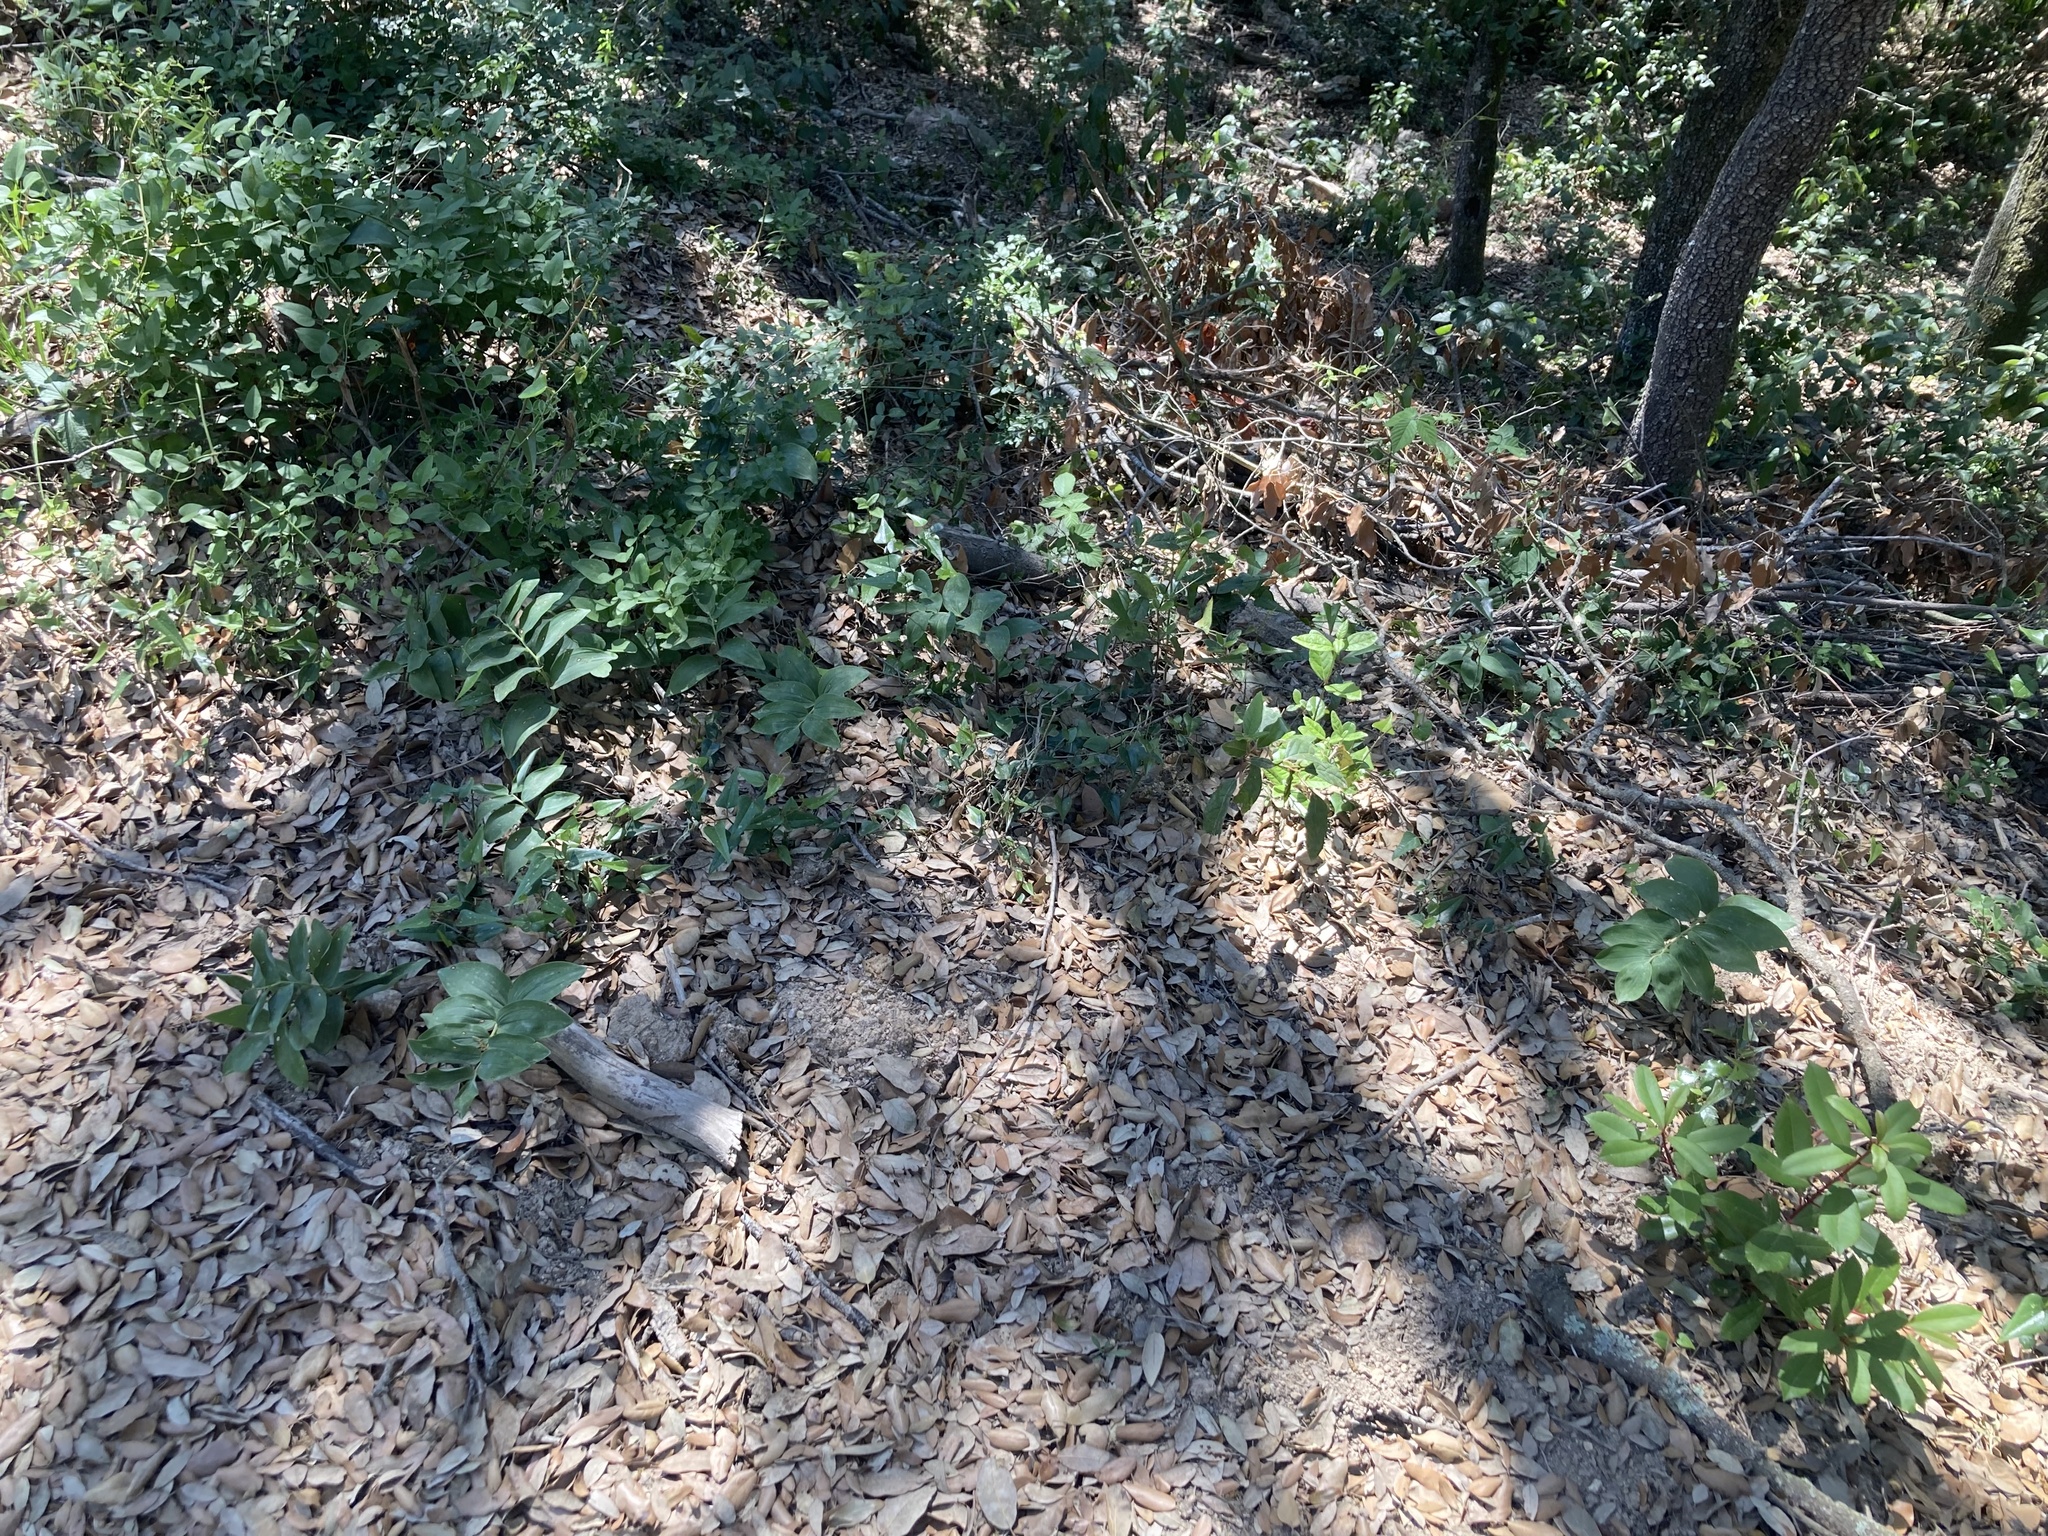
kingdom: Plantae
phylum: Tracheophyta
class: Liliopsida
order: Asparagales
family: Asparagaceae
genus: Polygonatum
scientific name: Polygonatum odoratum
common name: Angular solomon's-seal
